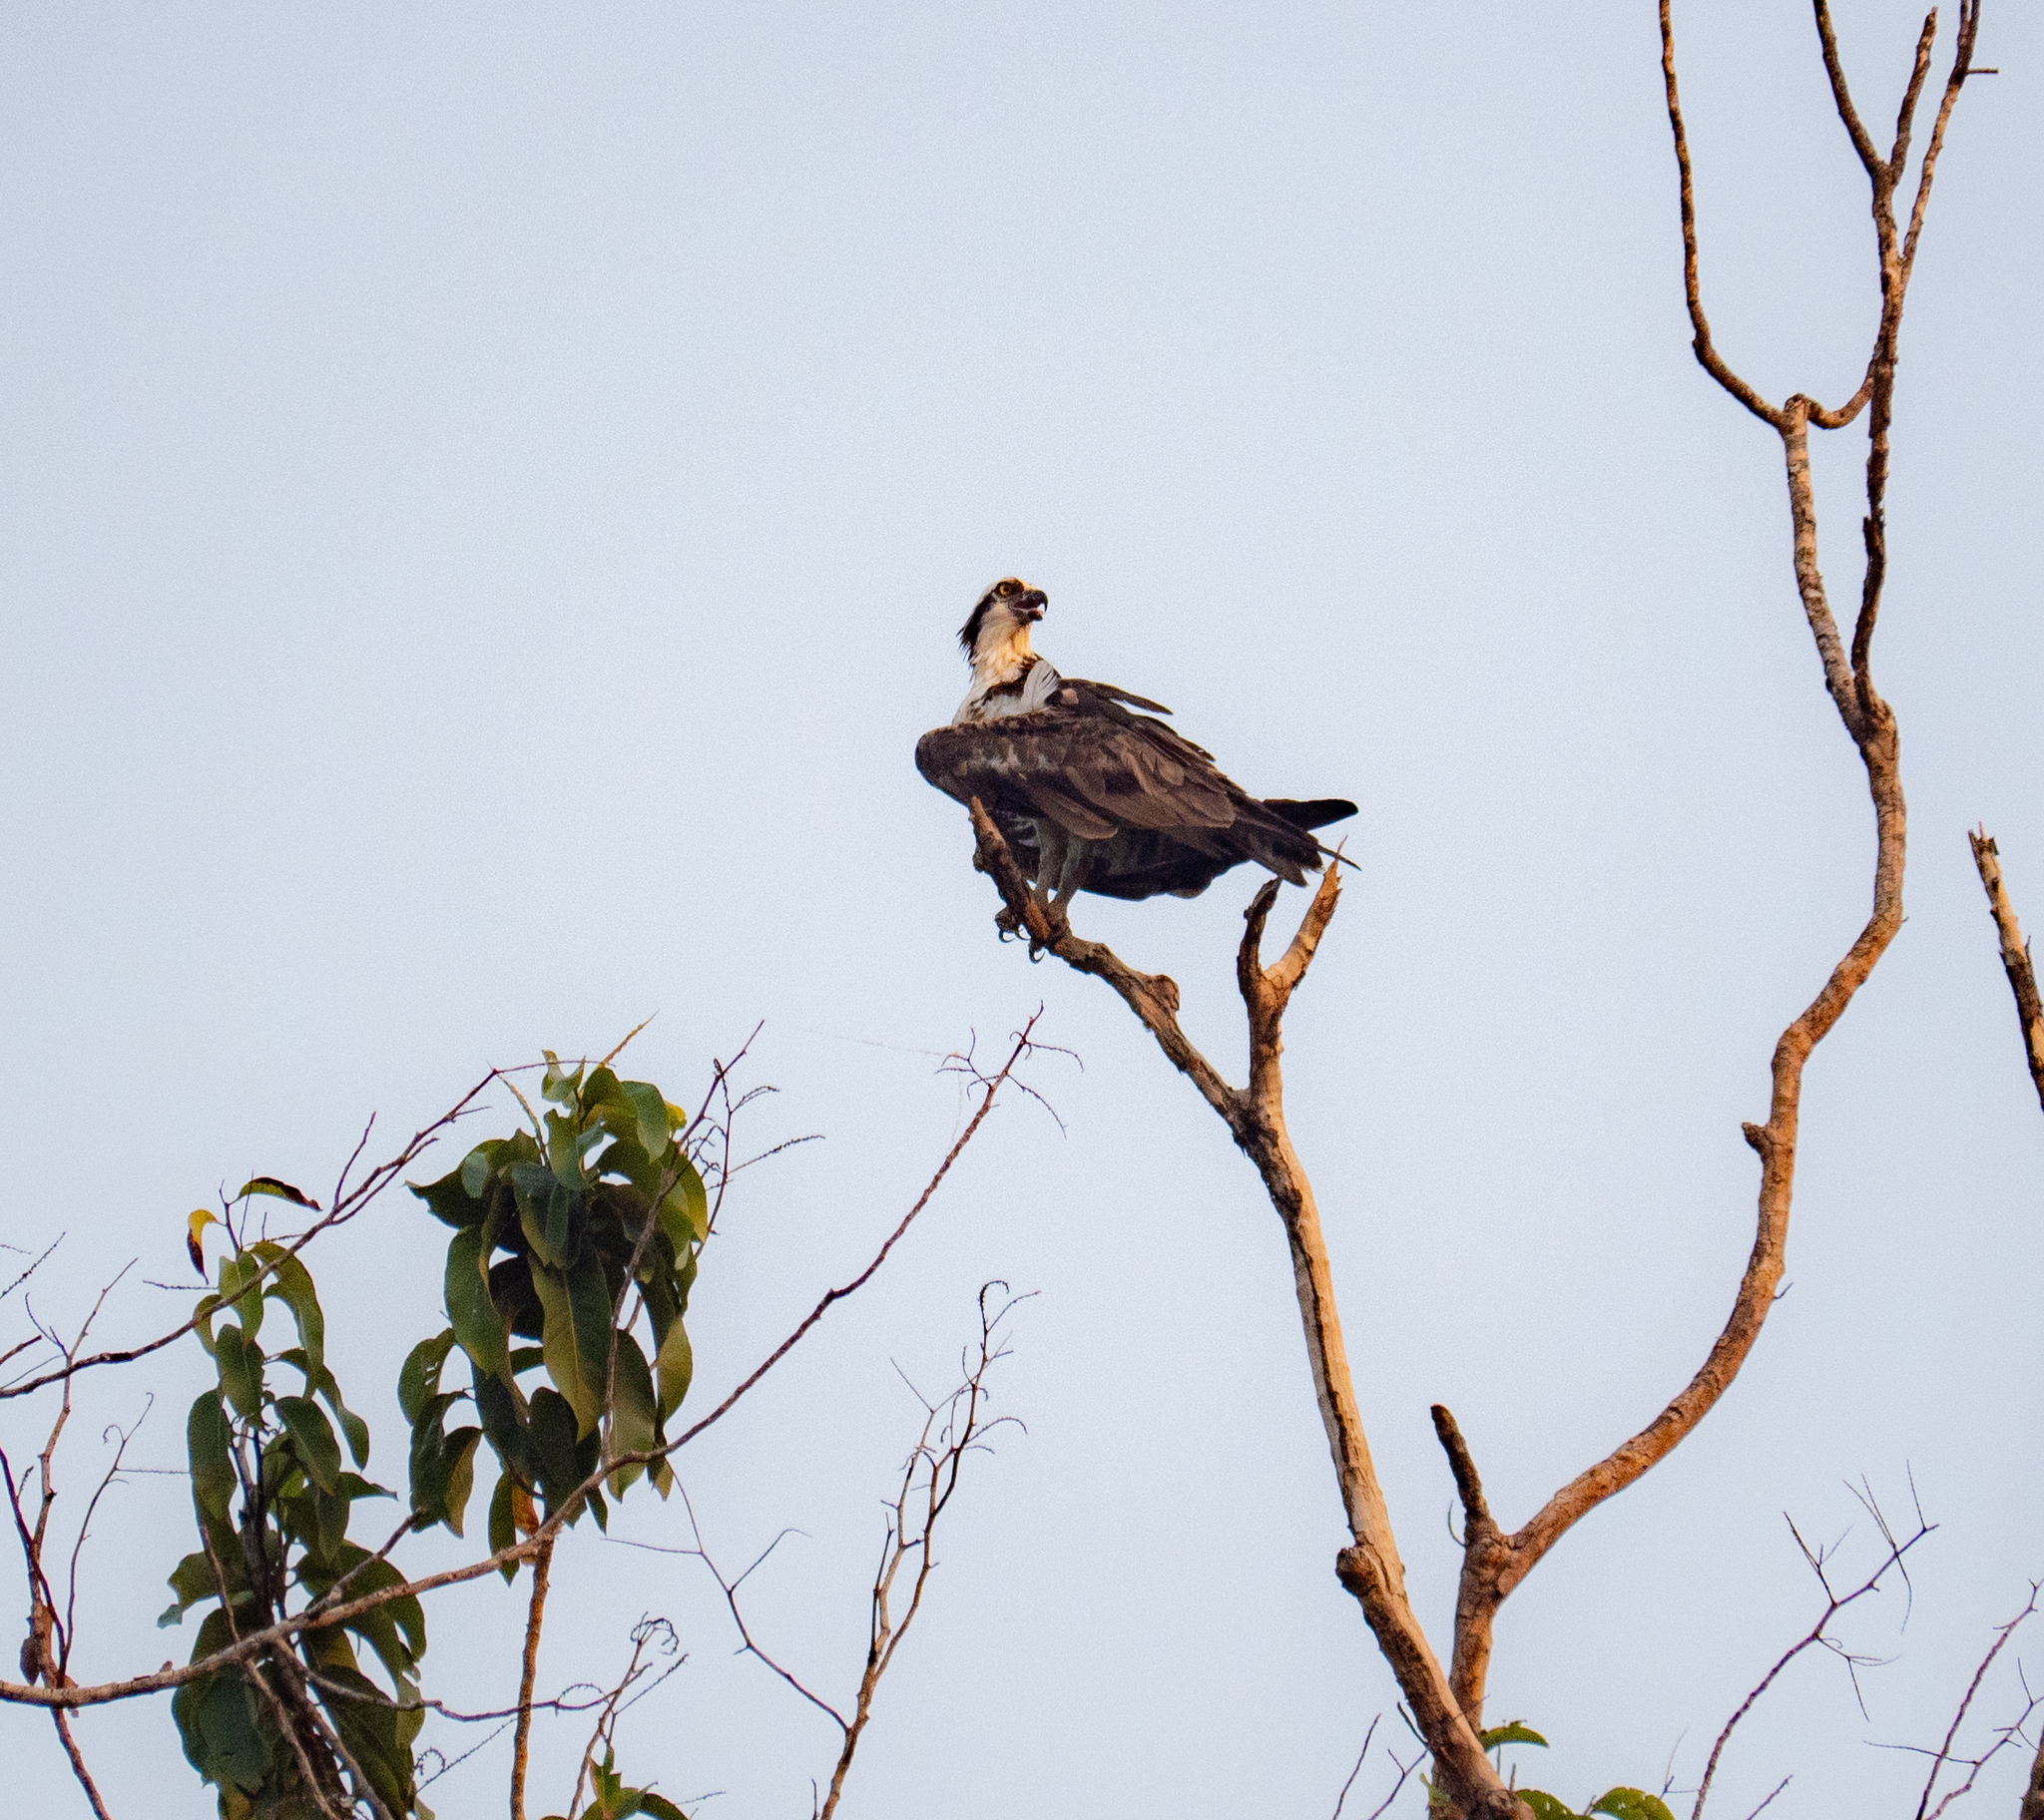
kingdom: Animalia
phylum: Chordata
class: Aves
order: Accipitriformes
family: Pandionidae
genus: Pandion
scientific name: Pandion haliaetus
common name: Osprey
